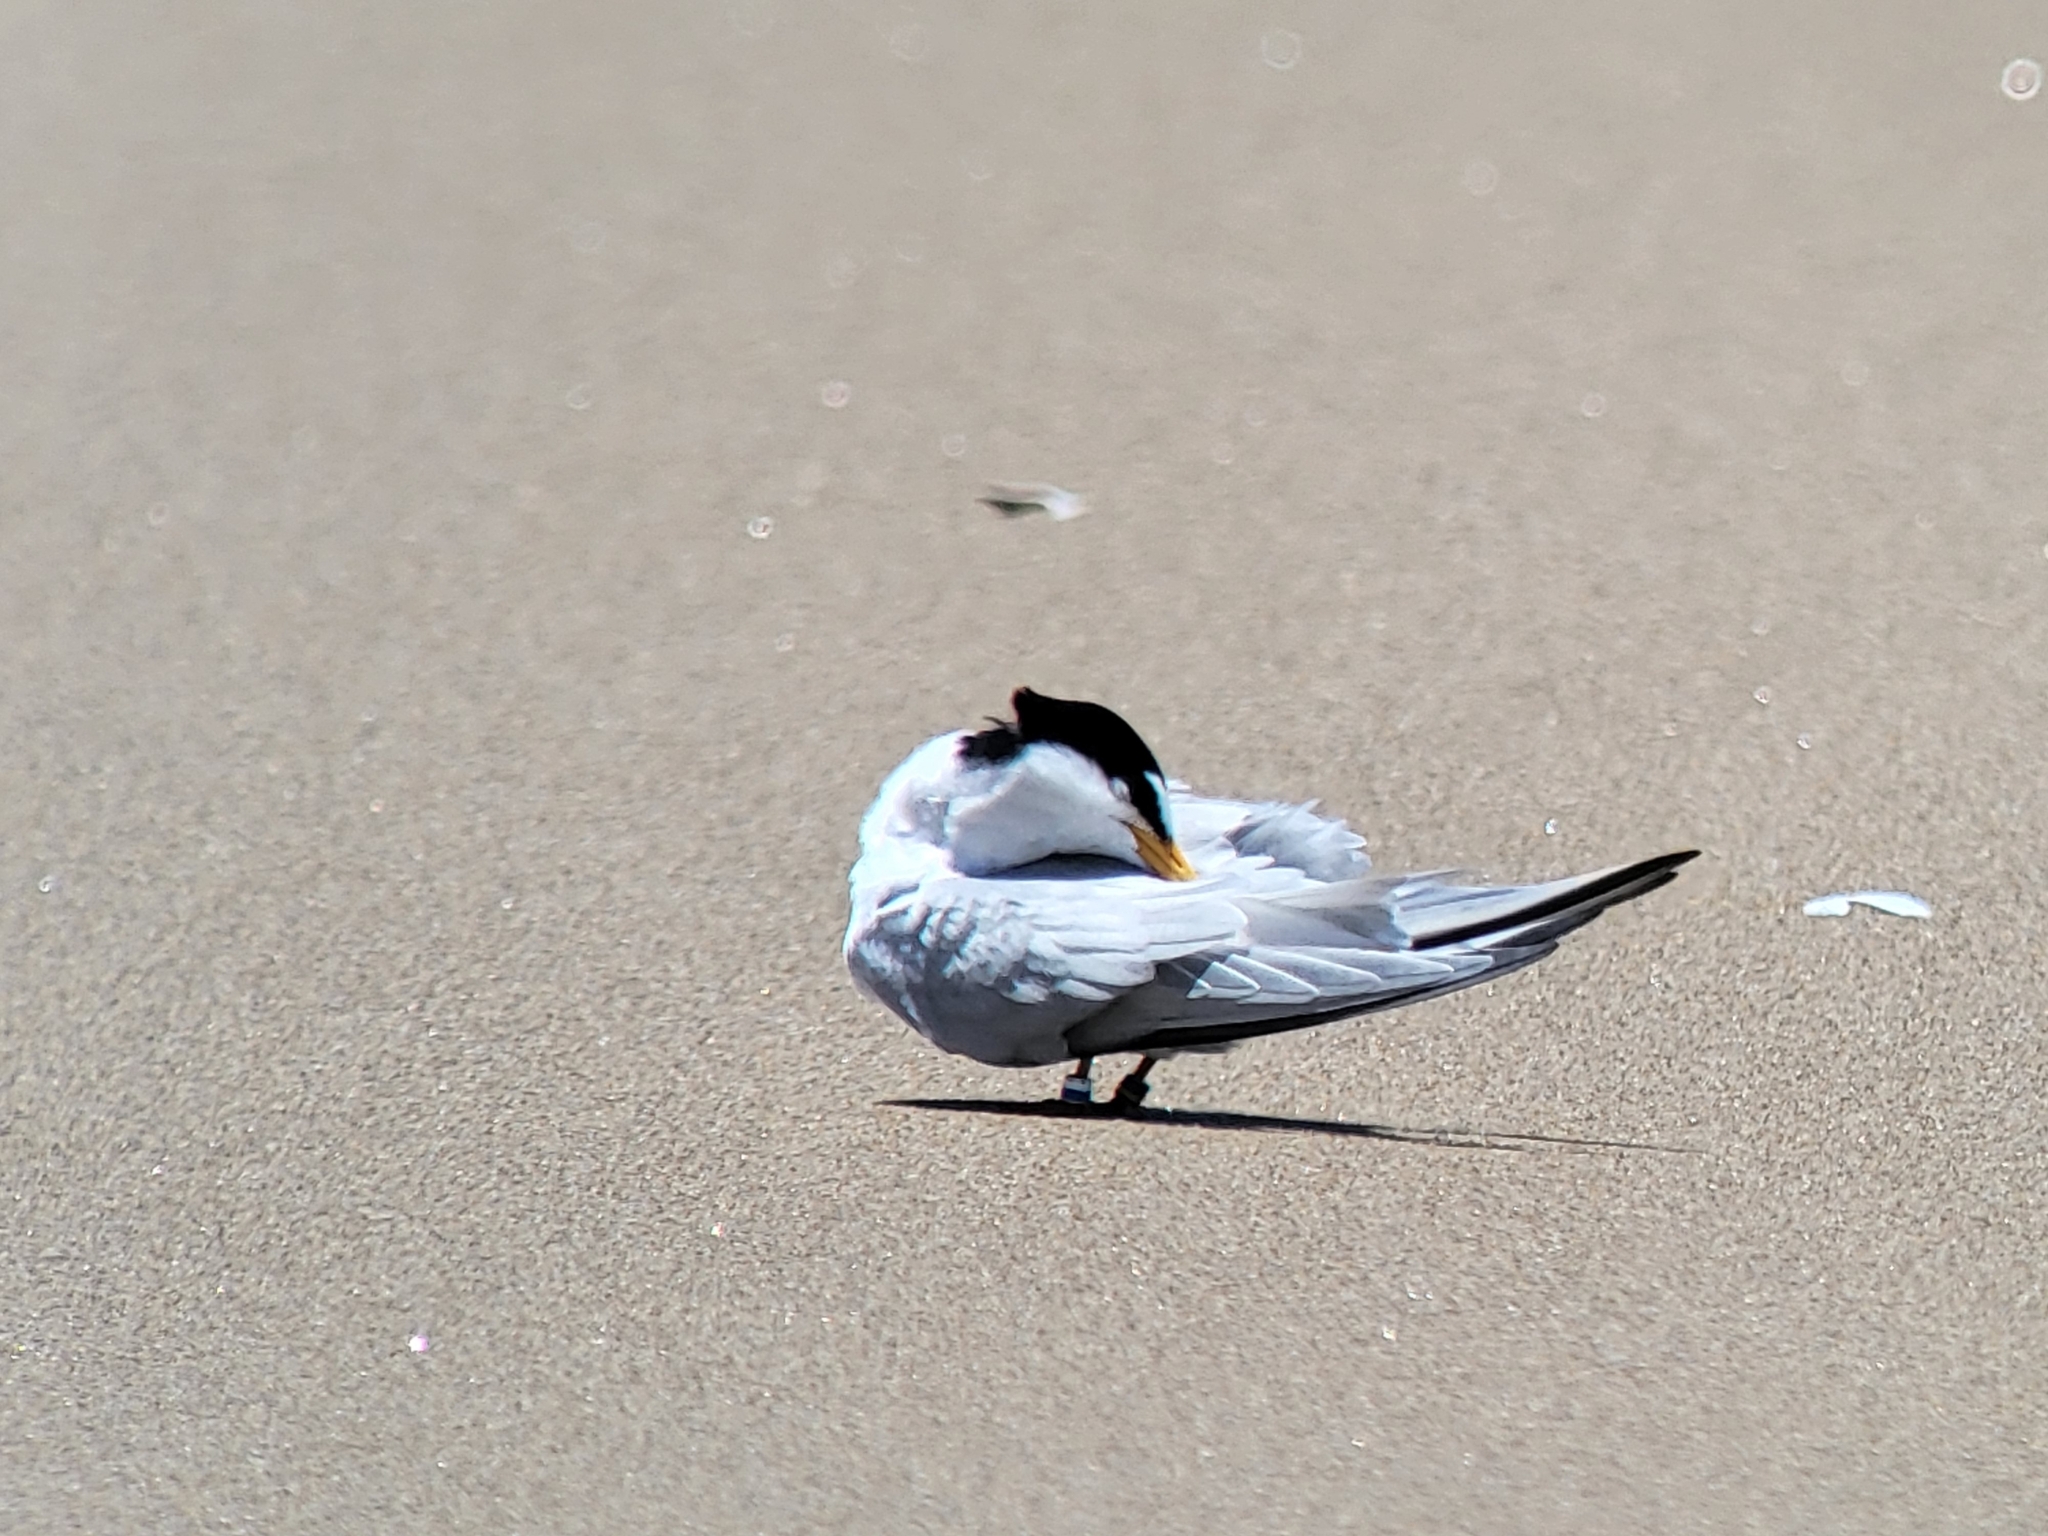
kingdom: Animalia
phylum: Chordata
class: Aves
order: Charadriiformes
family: Laridae
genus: Sternula
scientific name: Sternula antillarum
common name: Least tern
